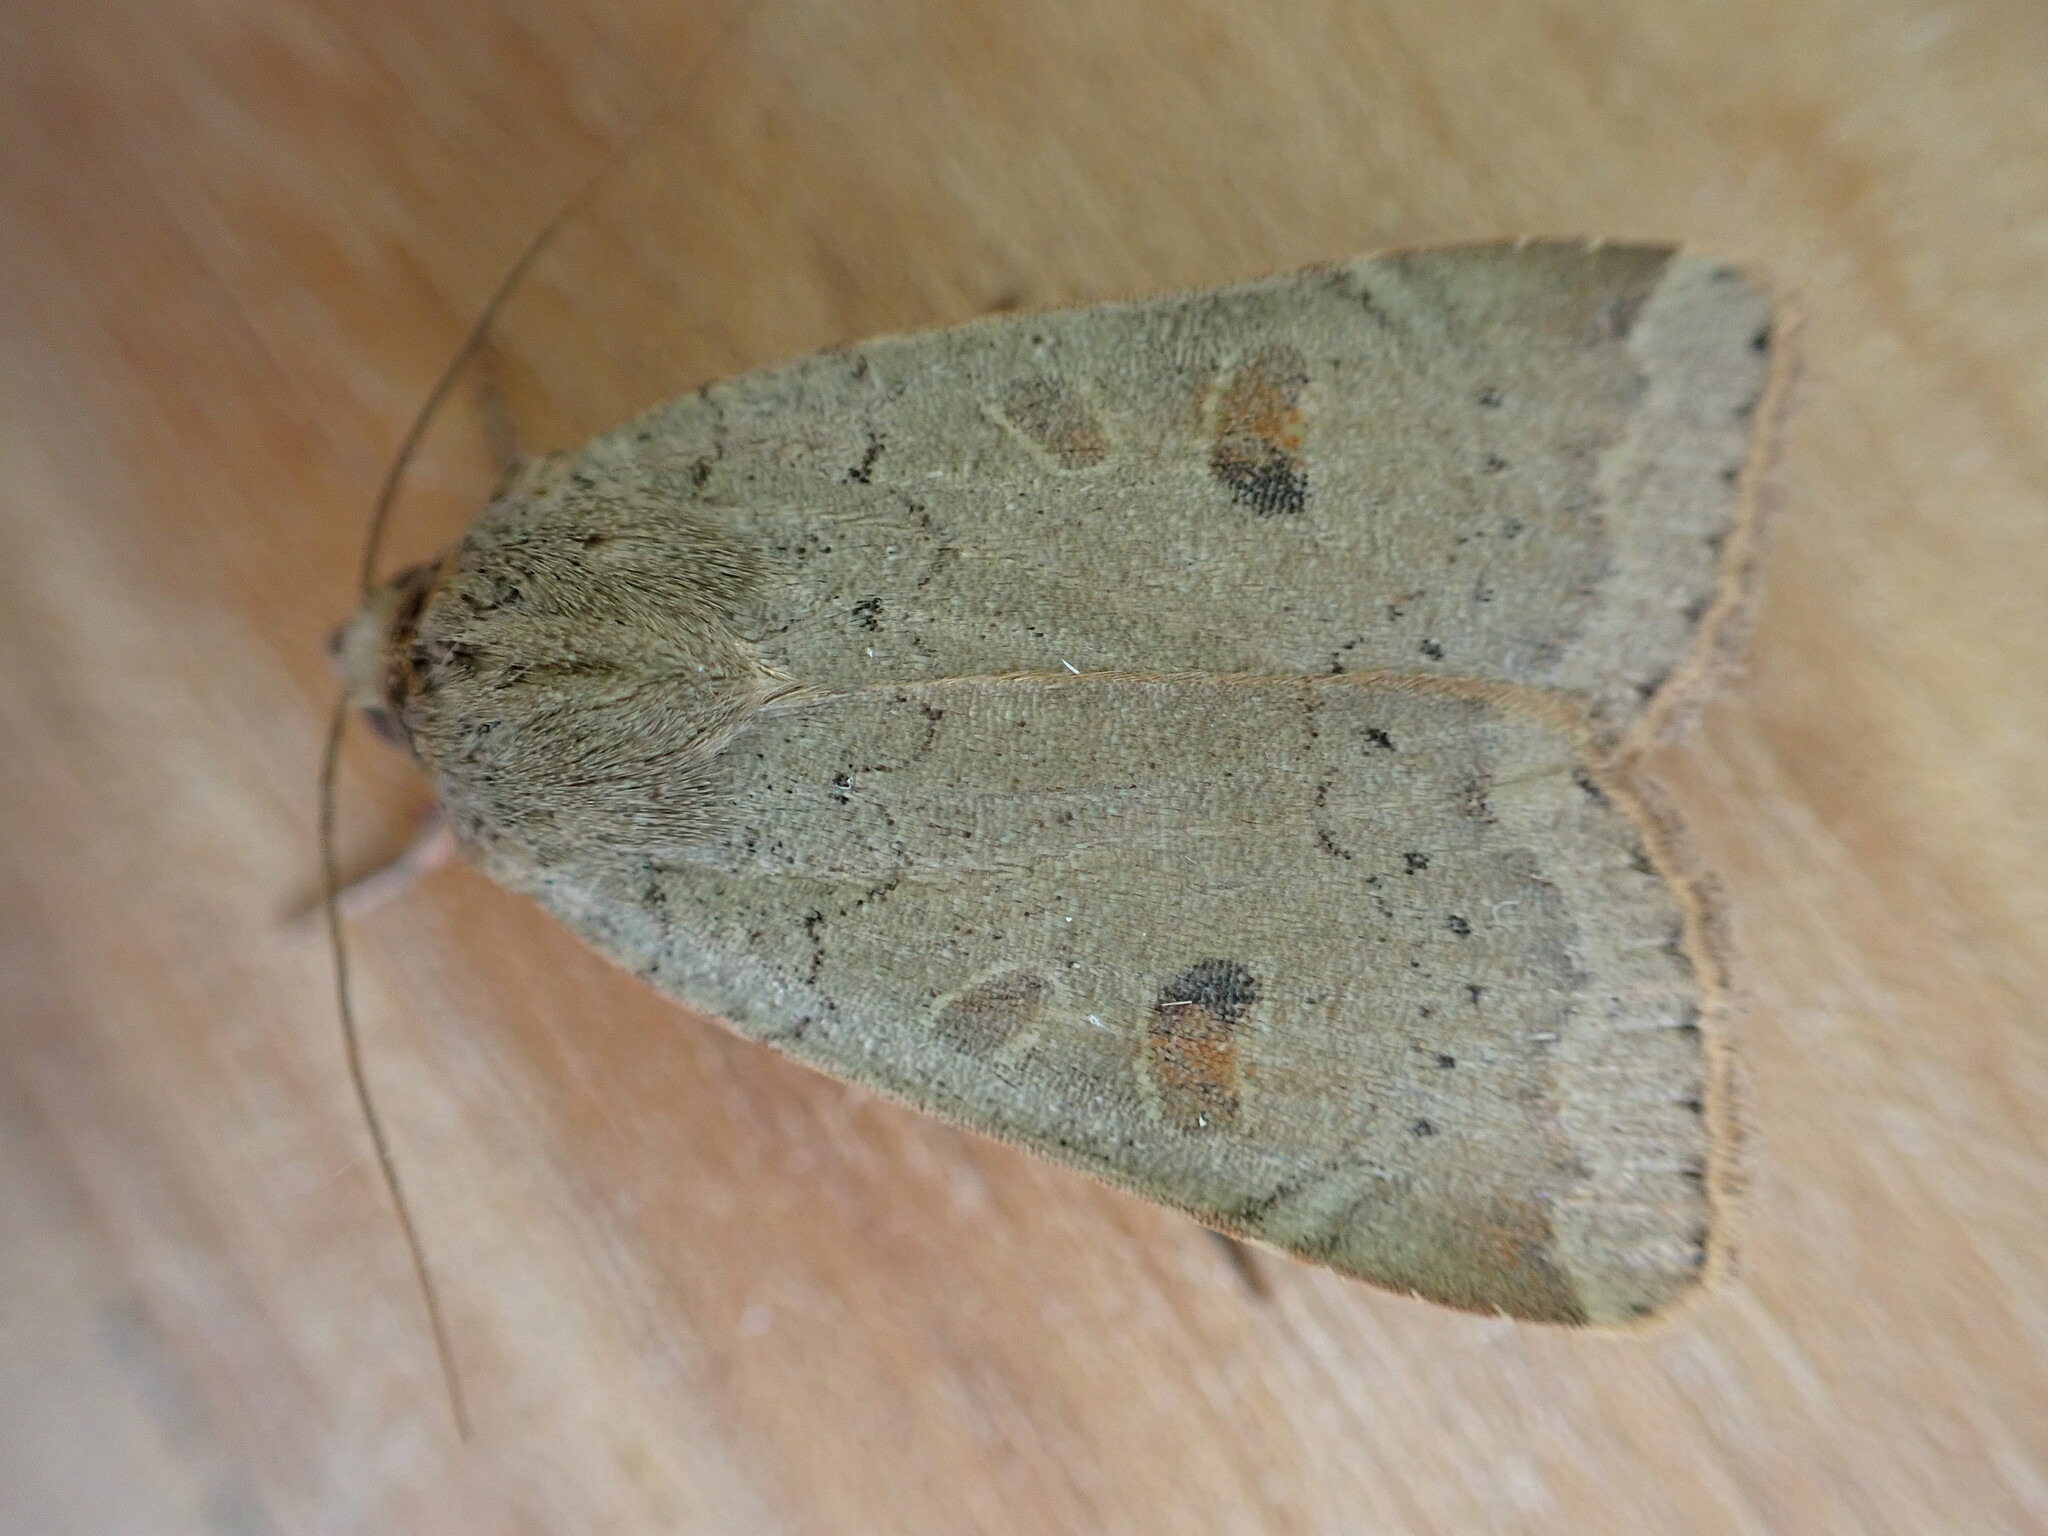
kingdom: Animalia
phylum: Arthropoda
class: Insecta
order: Lepidoptera
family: Noctuidae
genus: Noctua
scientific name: Noctua comes
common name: Lesser yellow underwing
